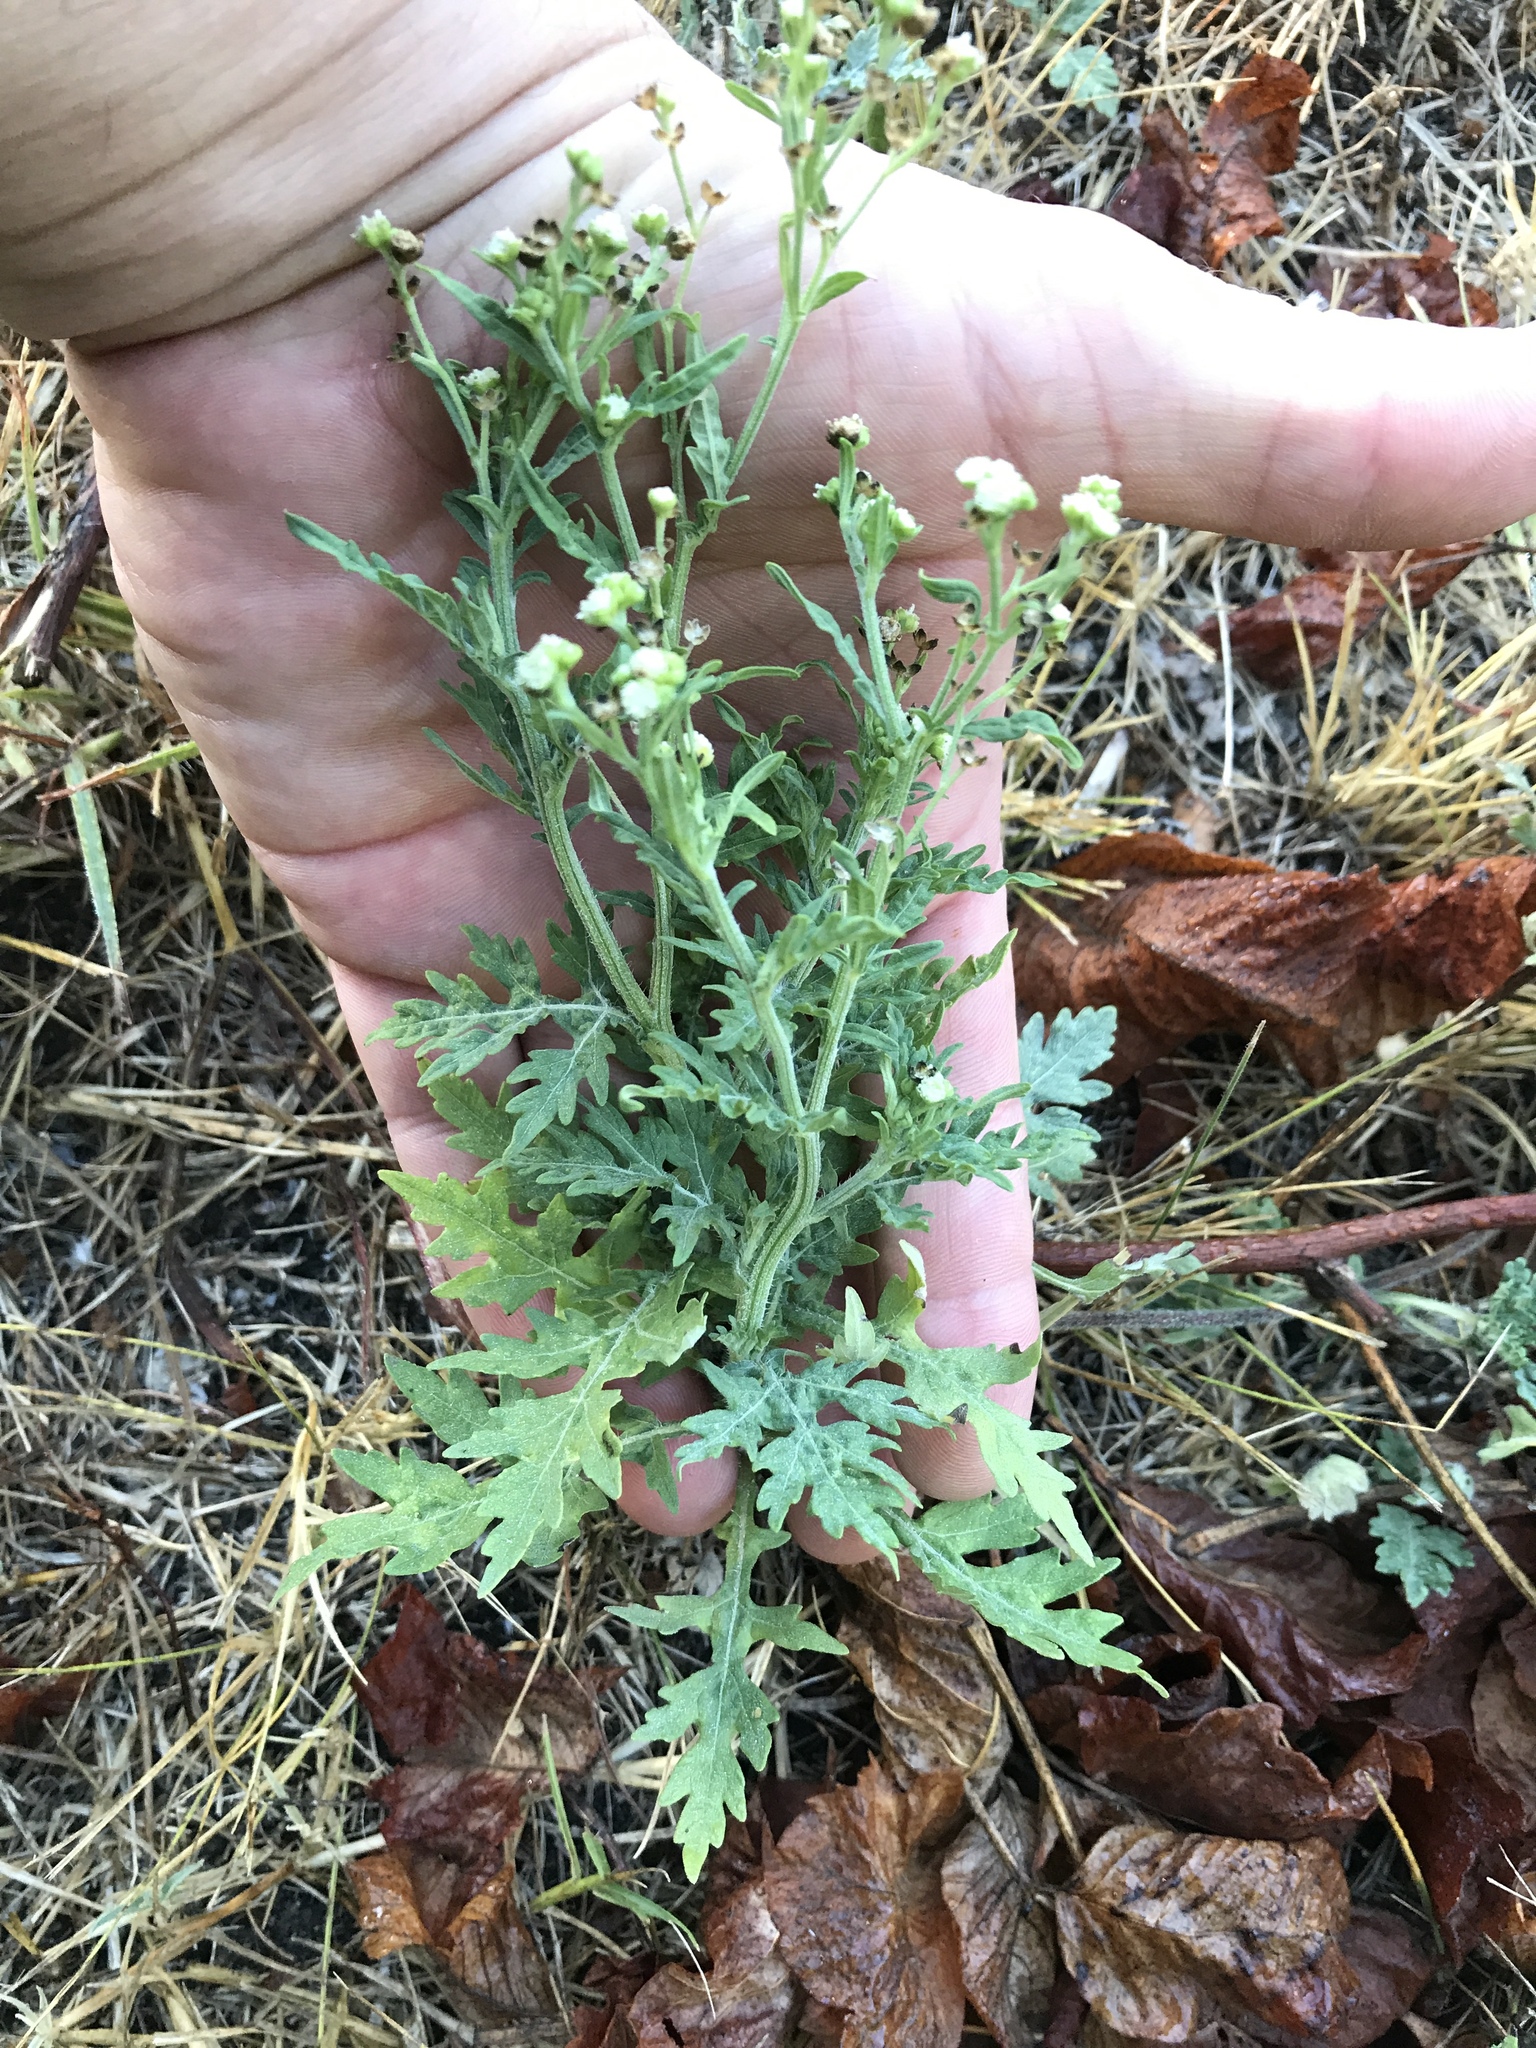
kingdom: Plantae
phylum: Tracheophyta
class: Magnoliopsida
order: Asterales
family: Asteraceae
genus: Parthenium
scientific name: Parthenium hysterophorus
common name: Santa maria feverfew
